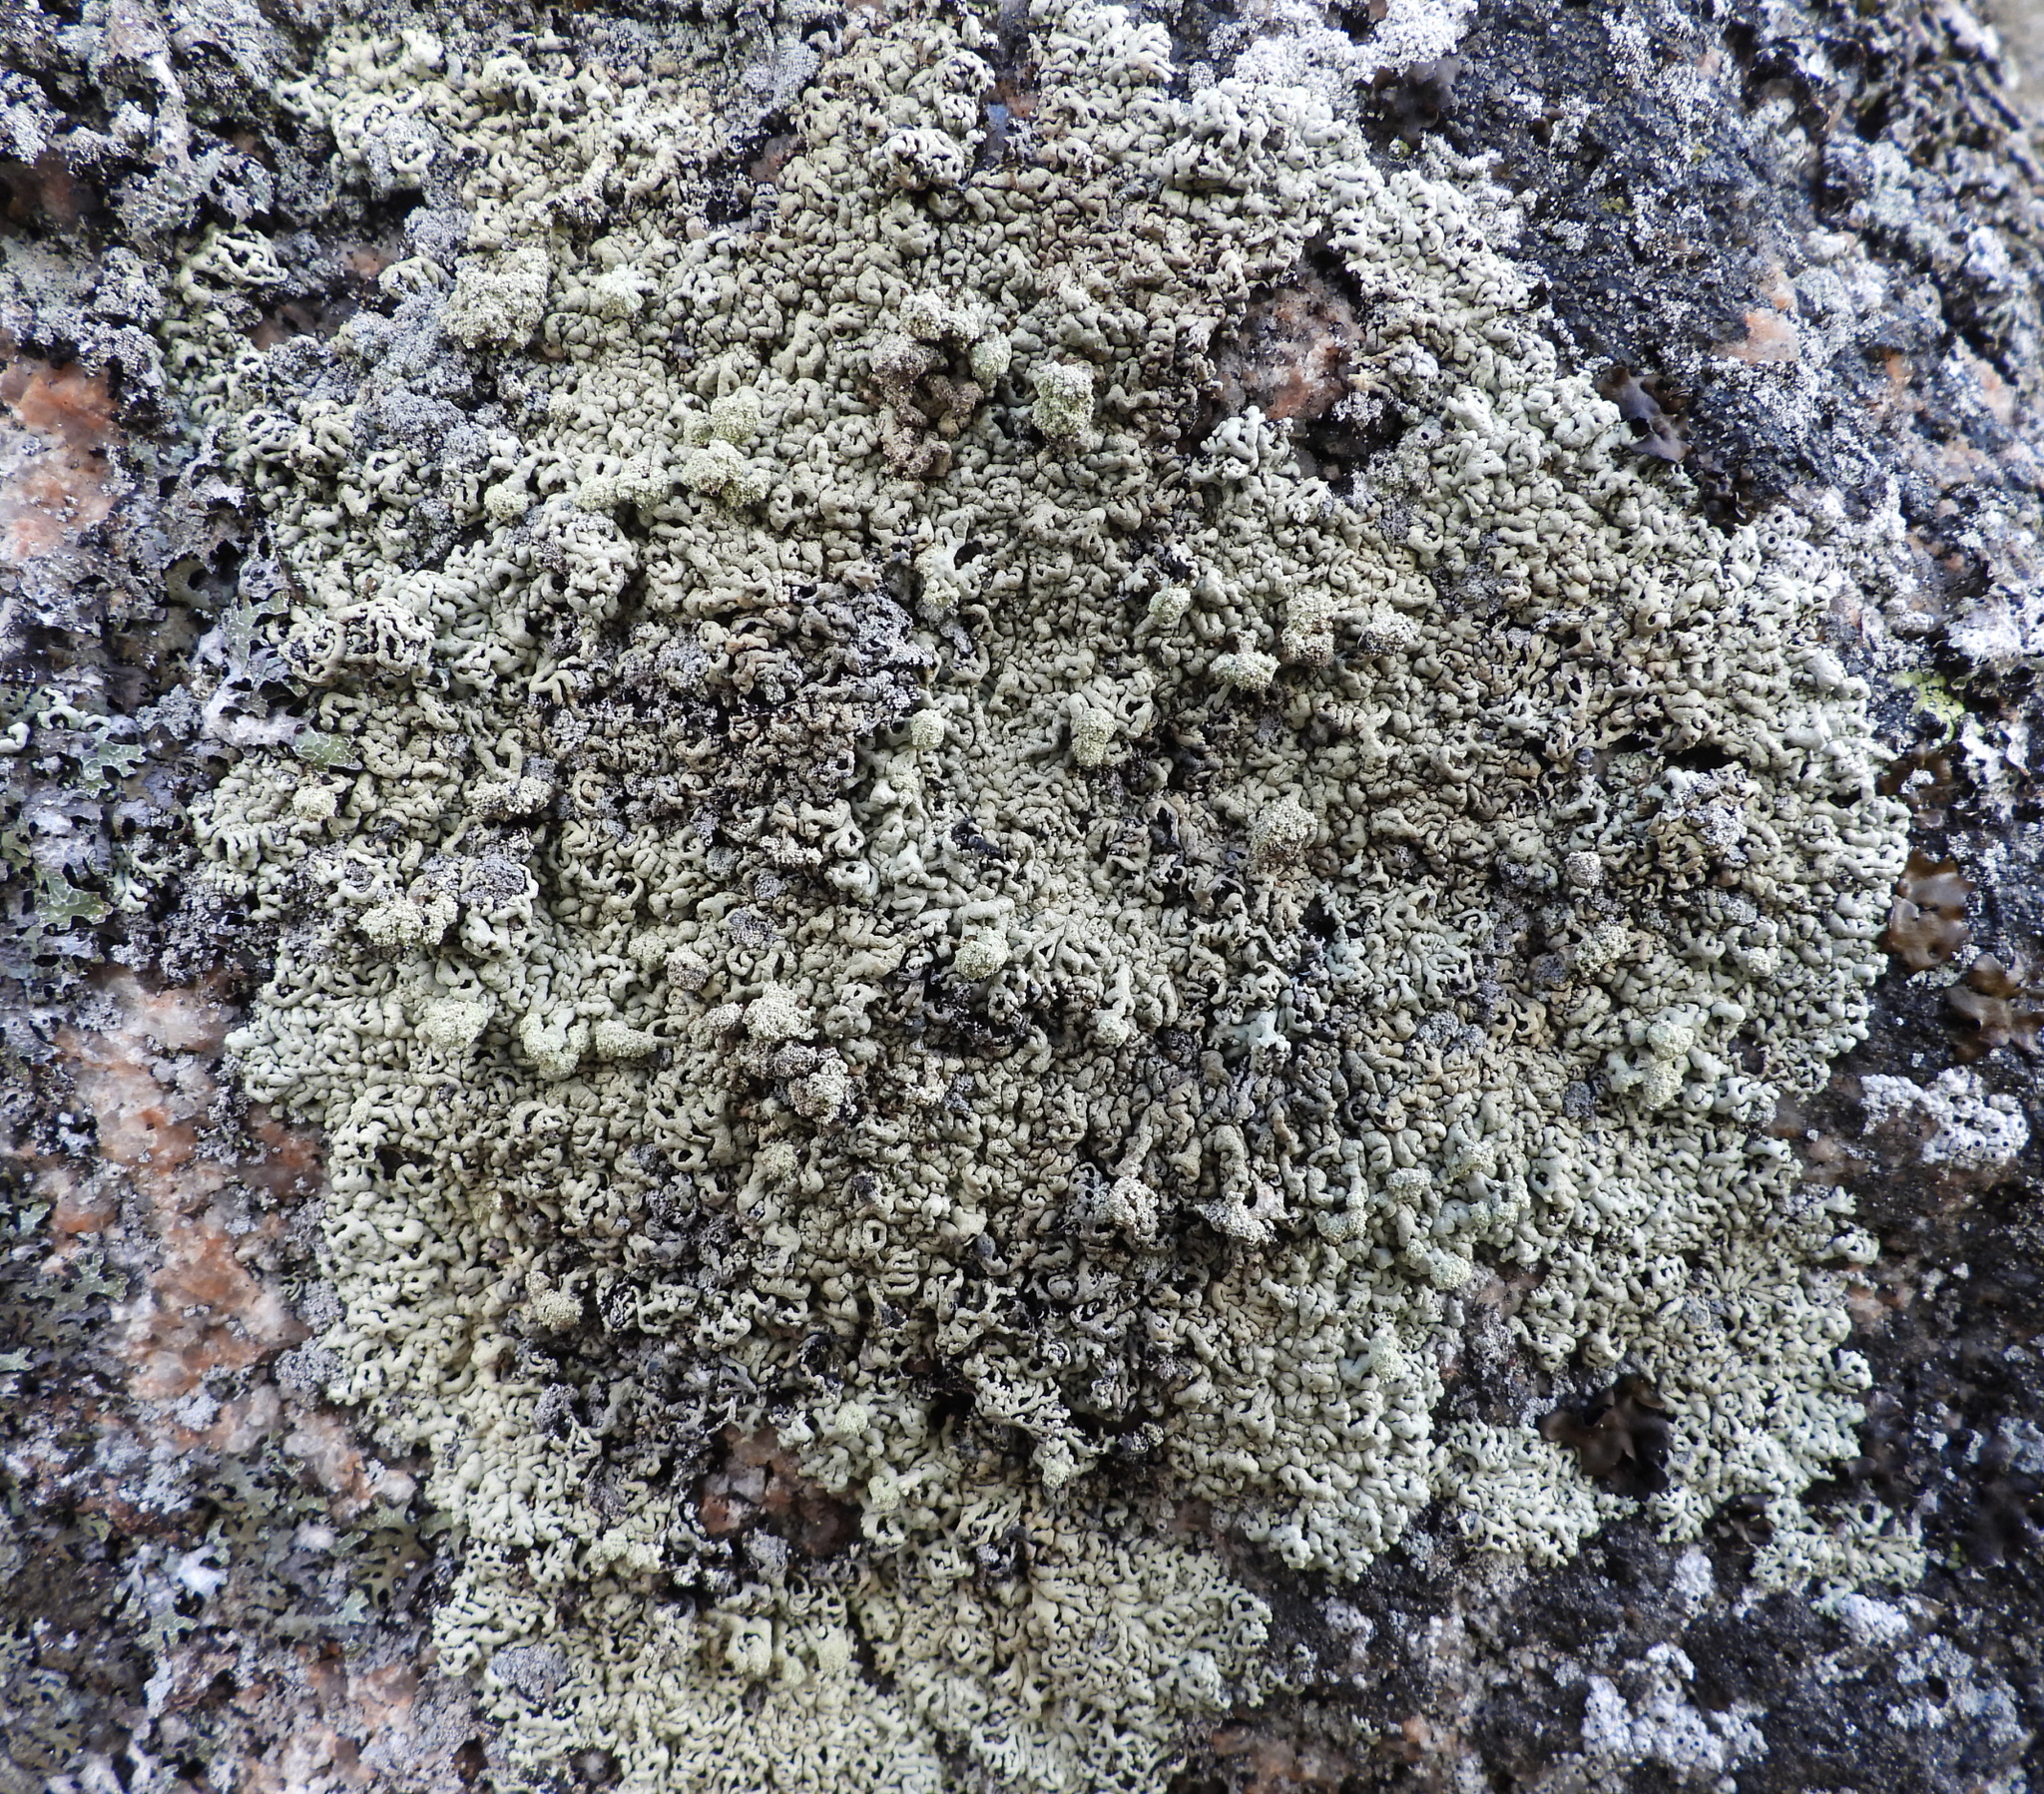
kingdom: Fungi
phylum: Ascomycota
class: Lecanoromycetes
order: Lecanorales
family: Parmeliaceae
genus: Arctoparmelia
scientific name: Arctoparmelia incurva
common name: Bent ring lichen
